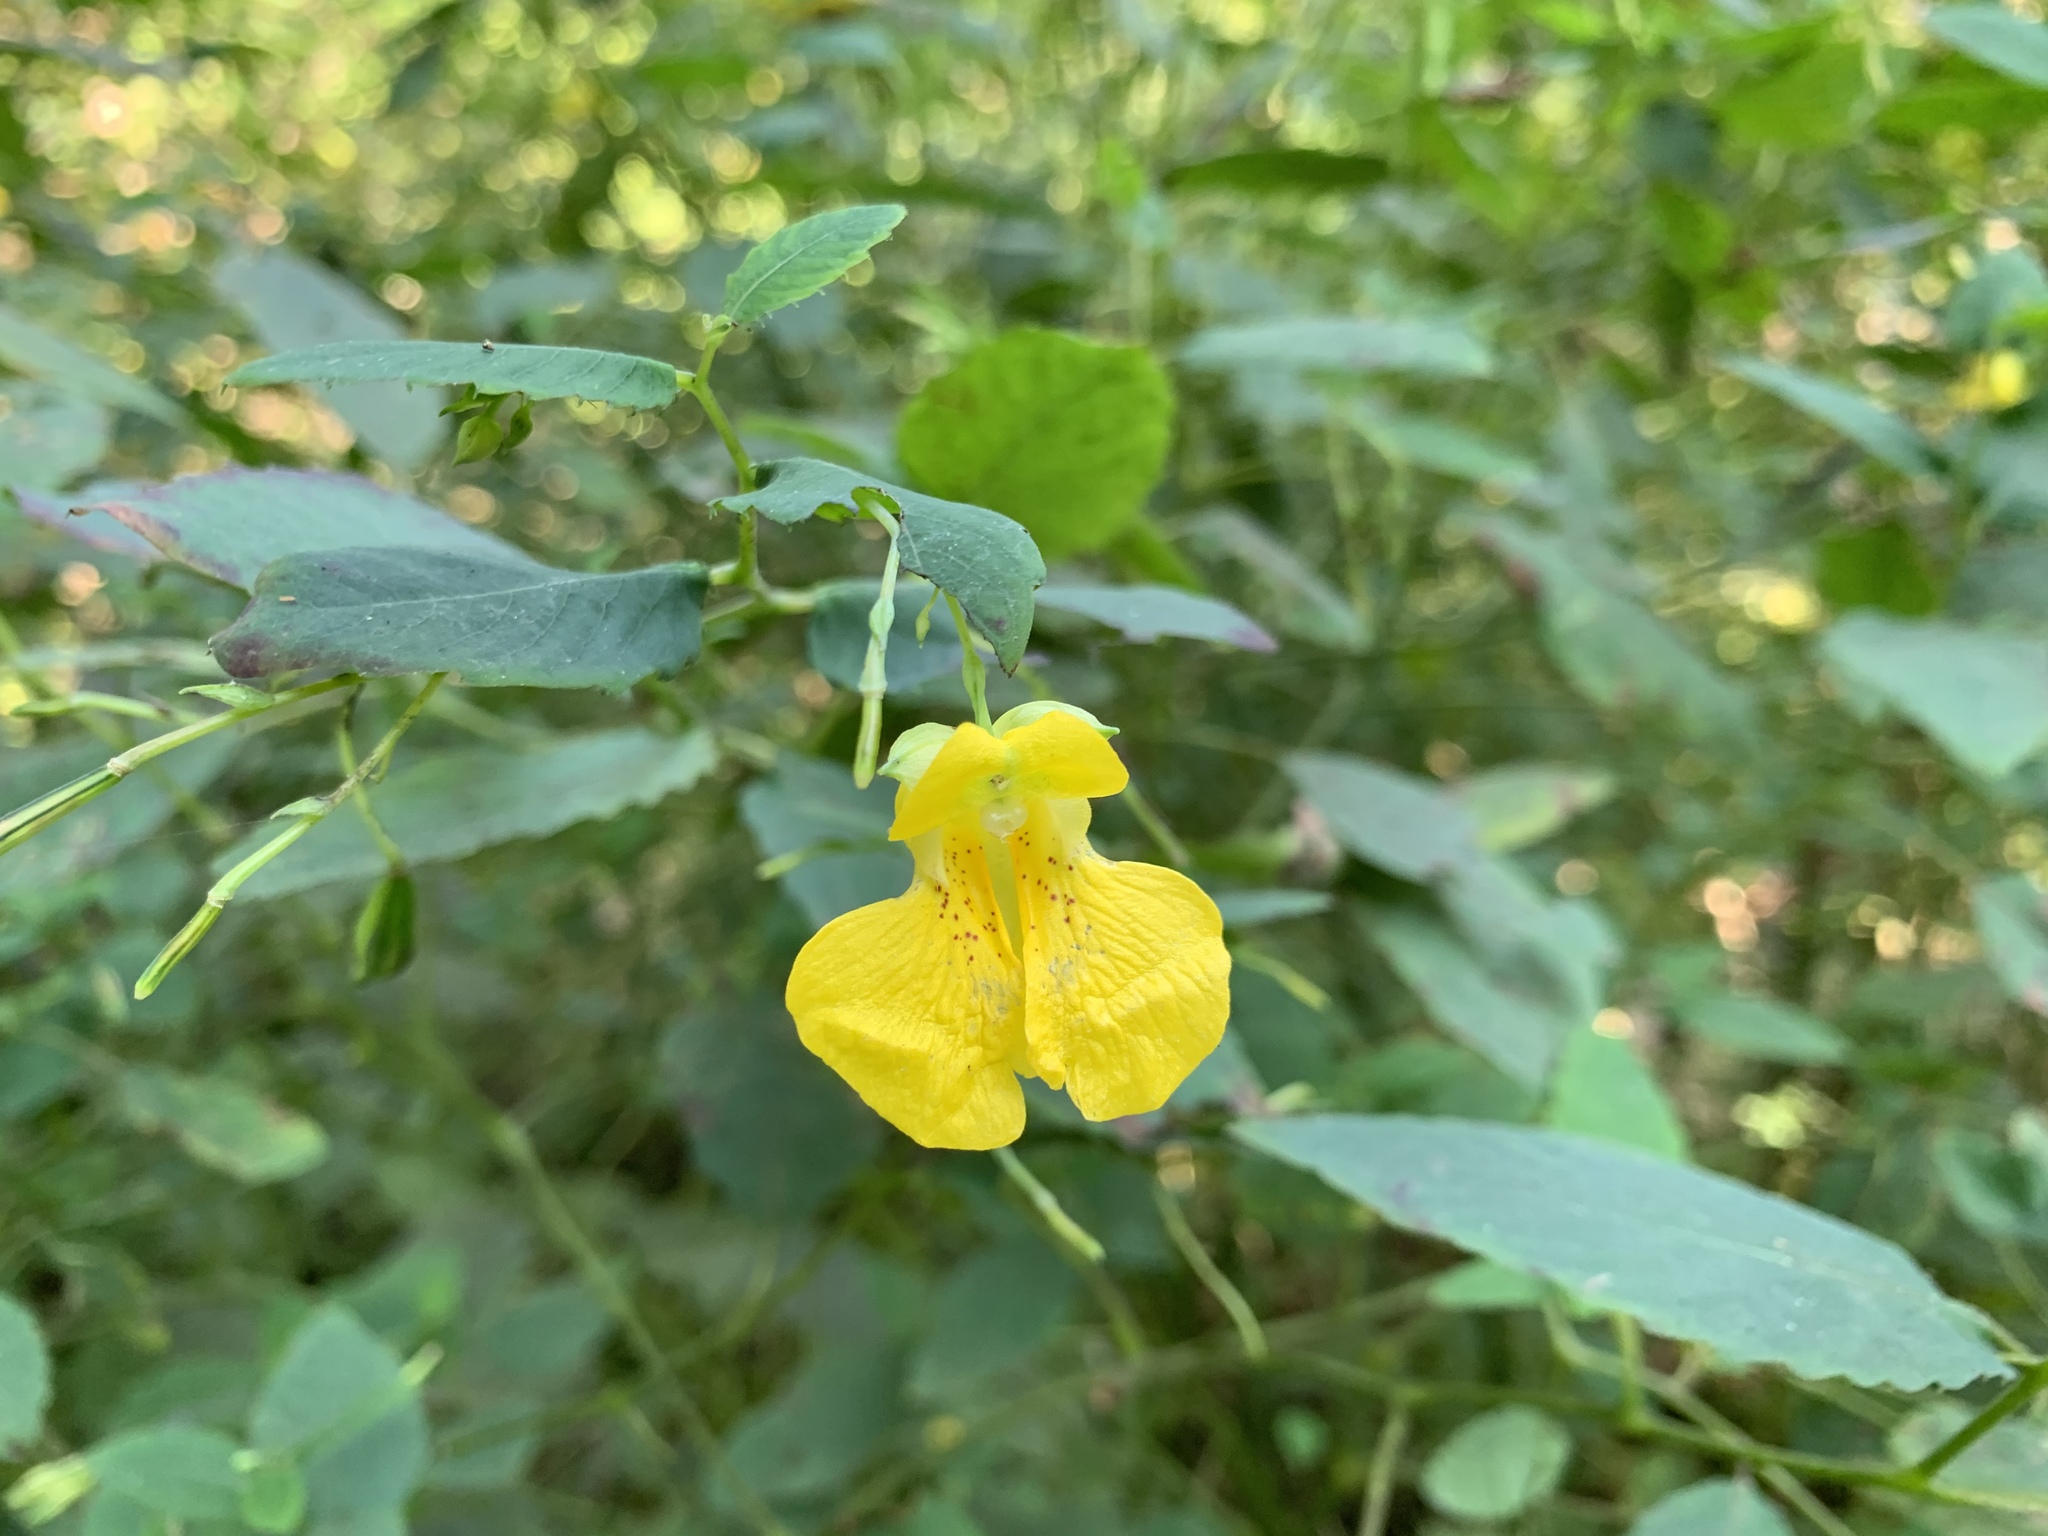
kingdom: Plantae
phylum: Tracheophyta
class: Magnoliopsida
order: Ericales
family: Balsaminaceae
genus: Impatiens
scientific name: Impatiens pallida
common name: Pale snapweed
